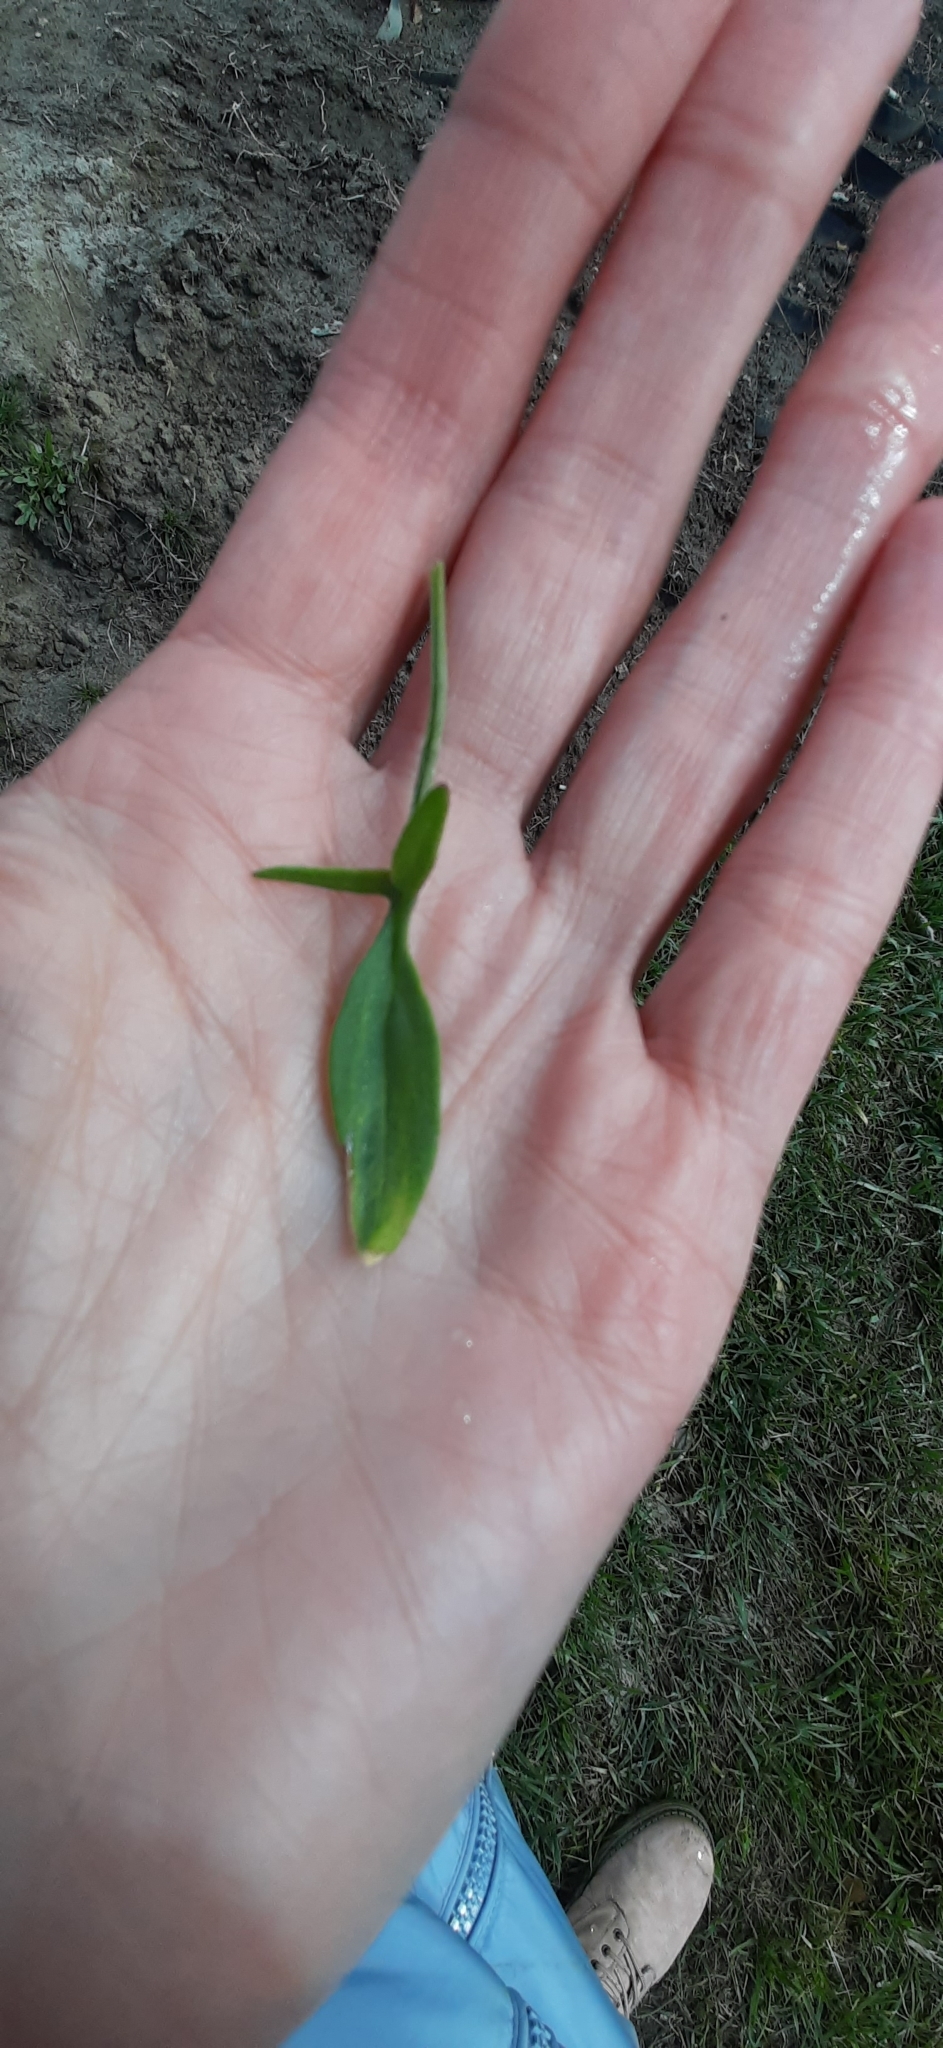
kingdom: Plantae
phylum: Tracheophyta
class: Magnoliopsida
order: Caryophyllales
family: Polygonaceae
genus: Rumex
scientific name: Rumex acetosella
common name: Common sheep sorrel
